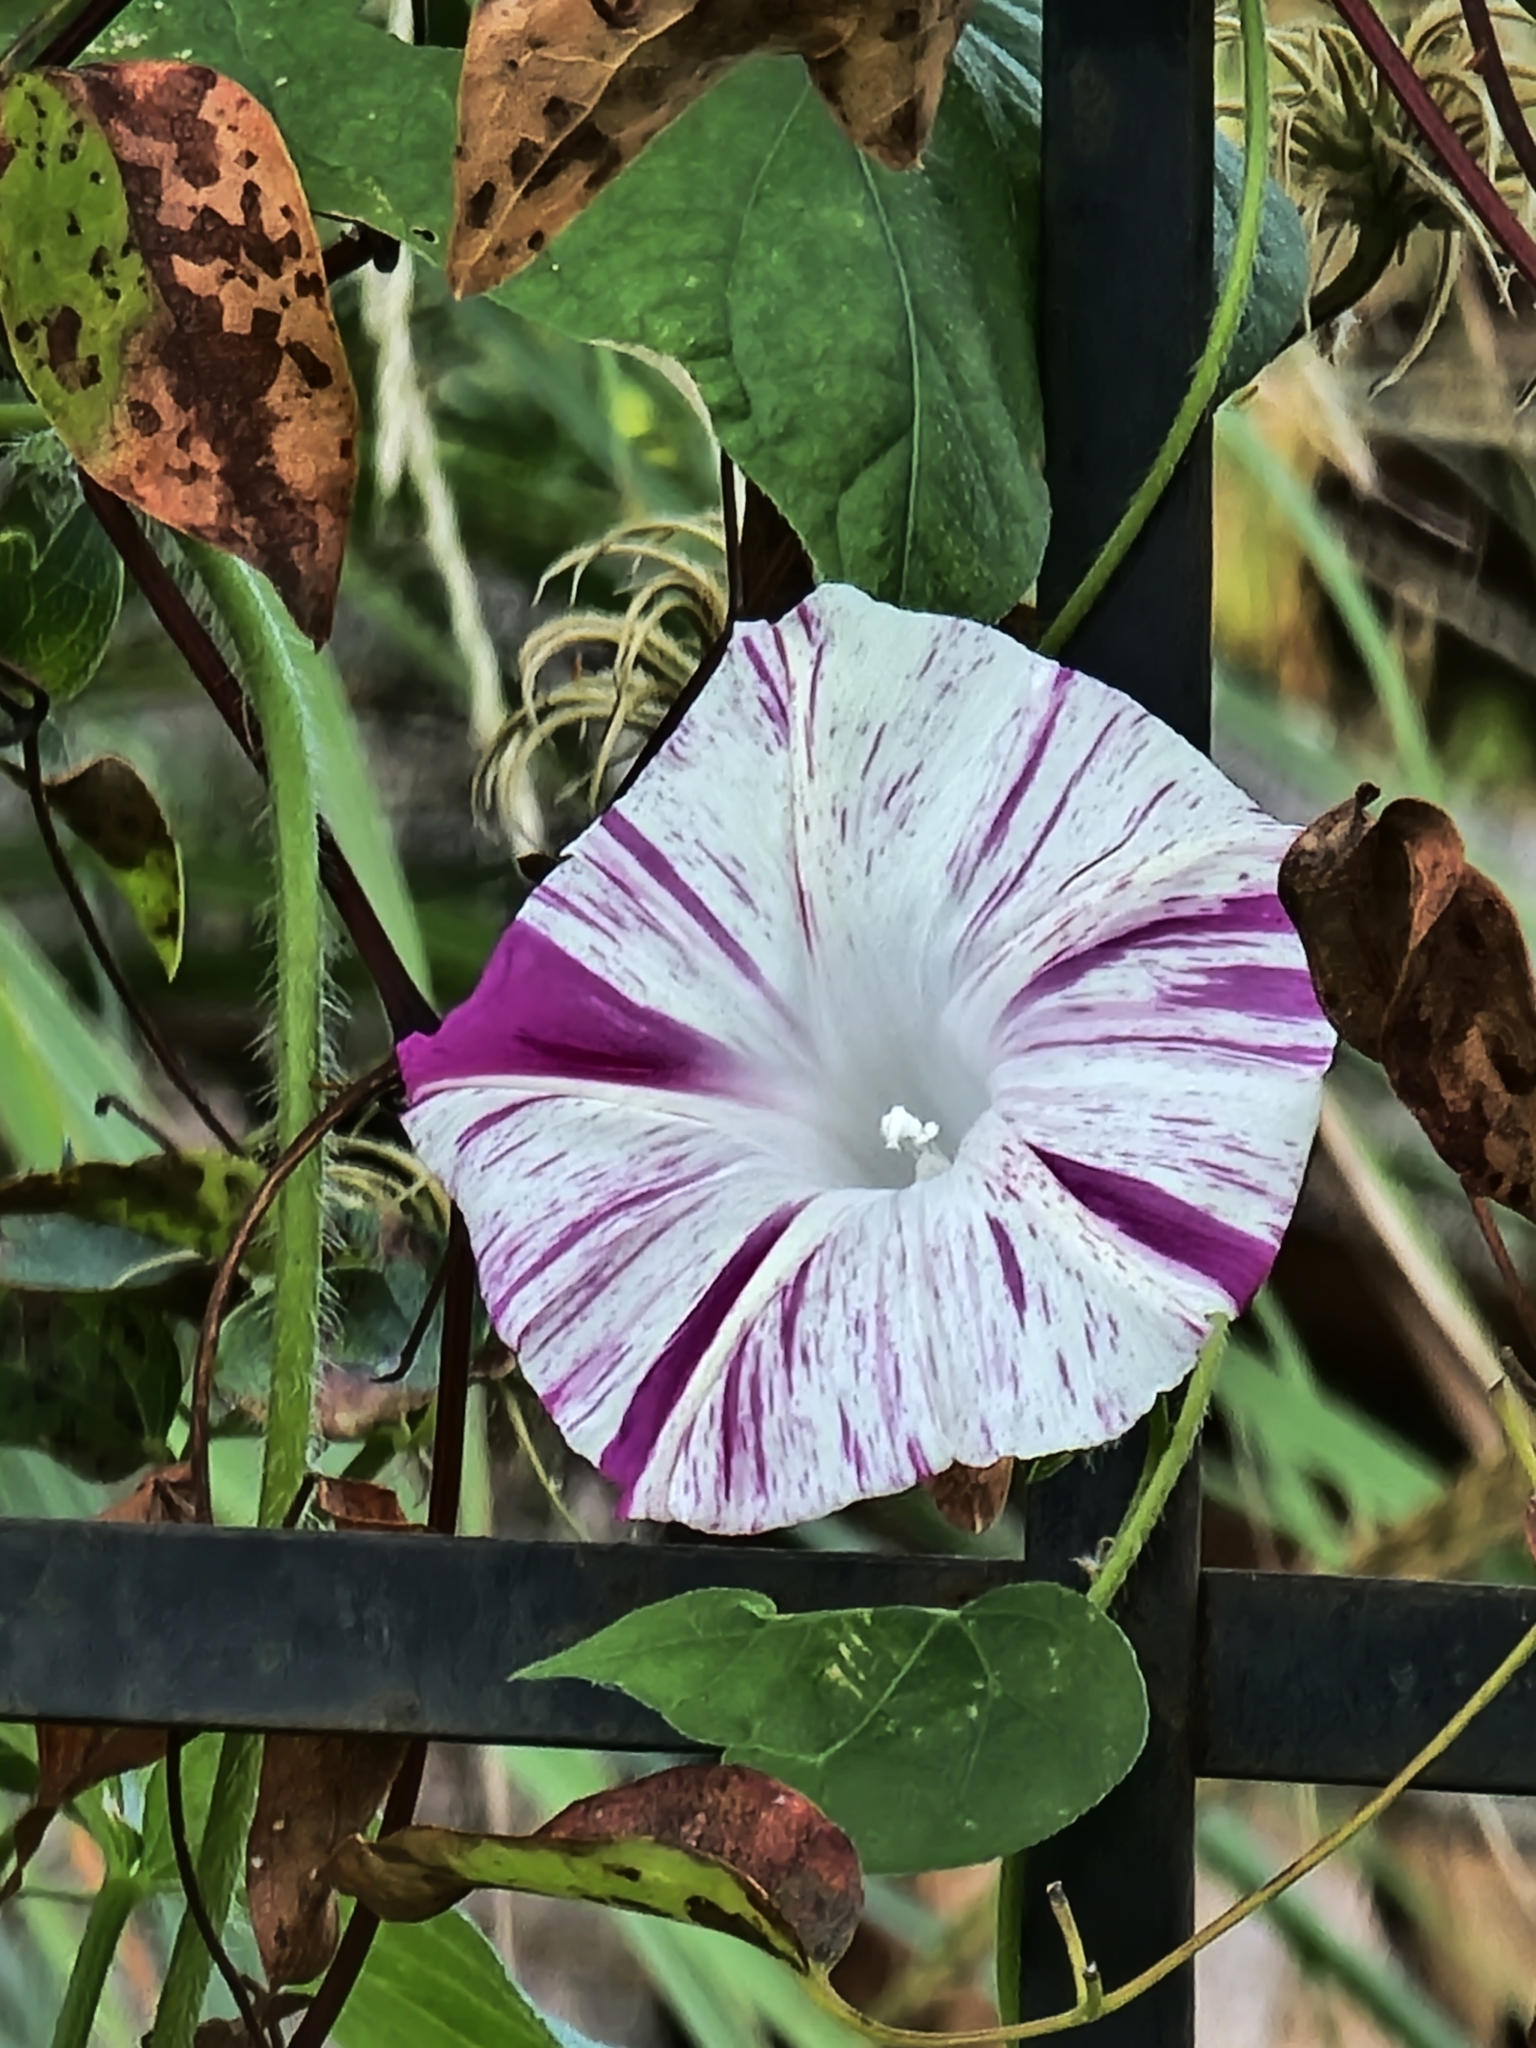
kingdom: Plantae
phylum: Tracheophyta
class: Magnoliopsida
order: Solanales
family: Convolvulaceae
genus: Ipomoea
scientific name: Ipomoea purpurea
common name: Common morning-glory
